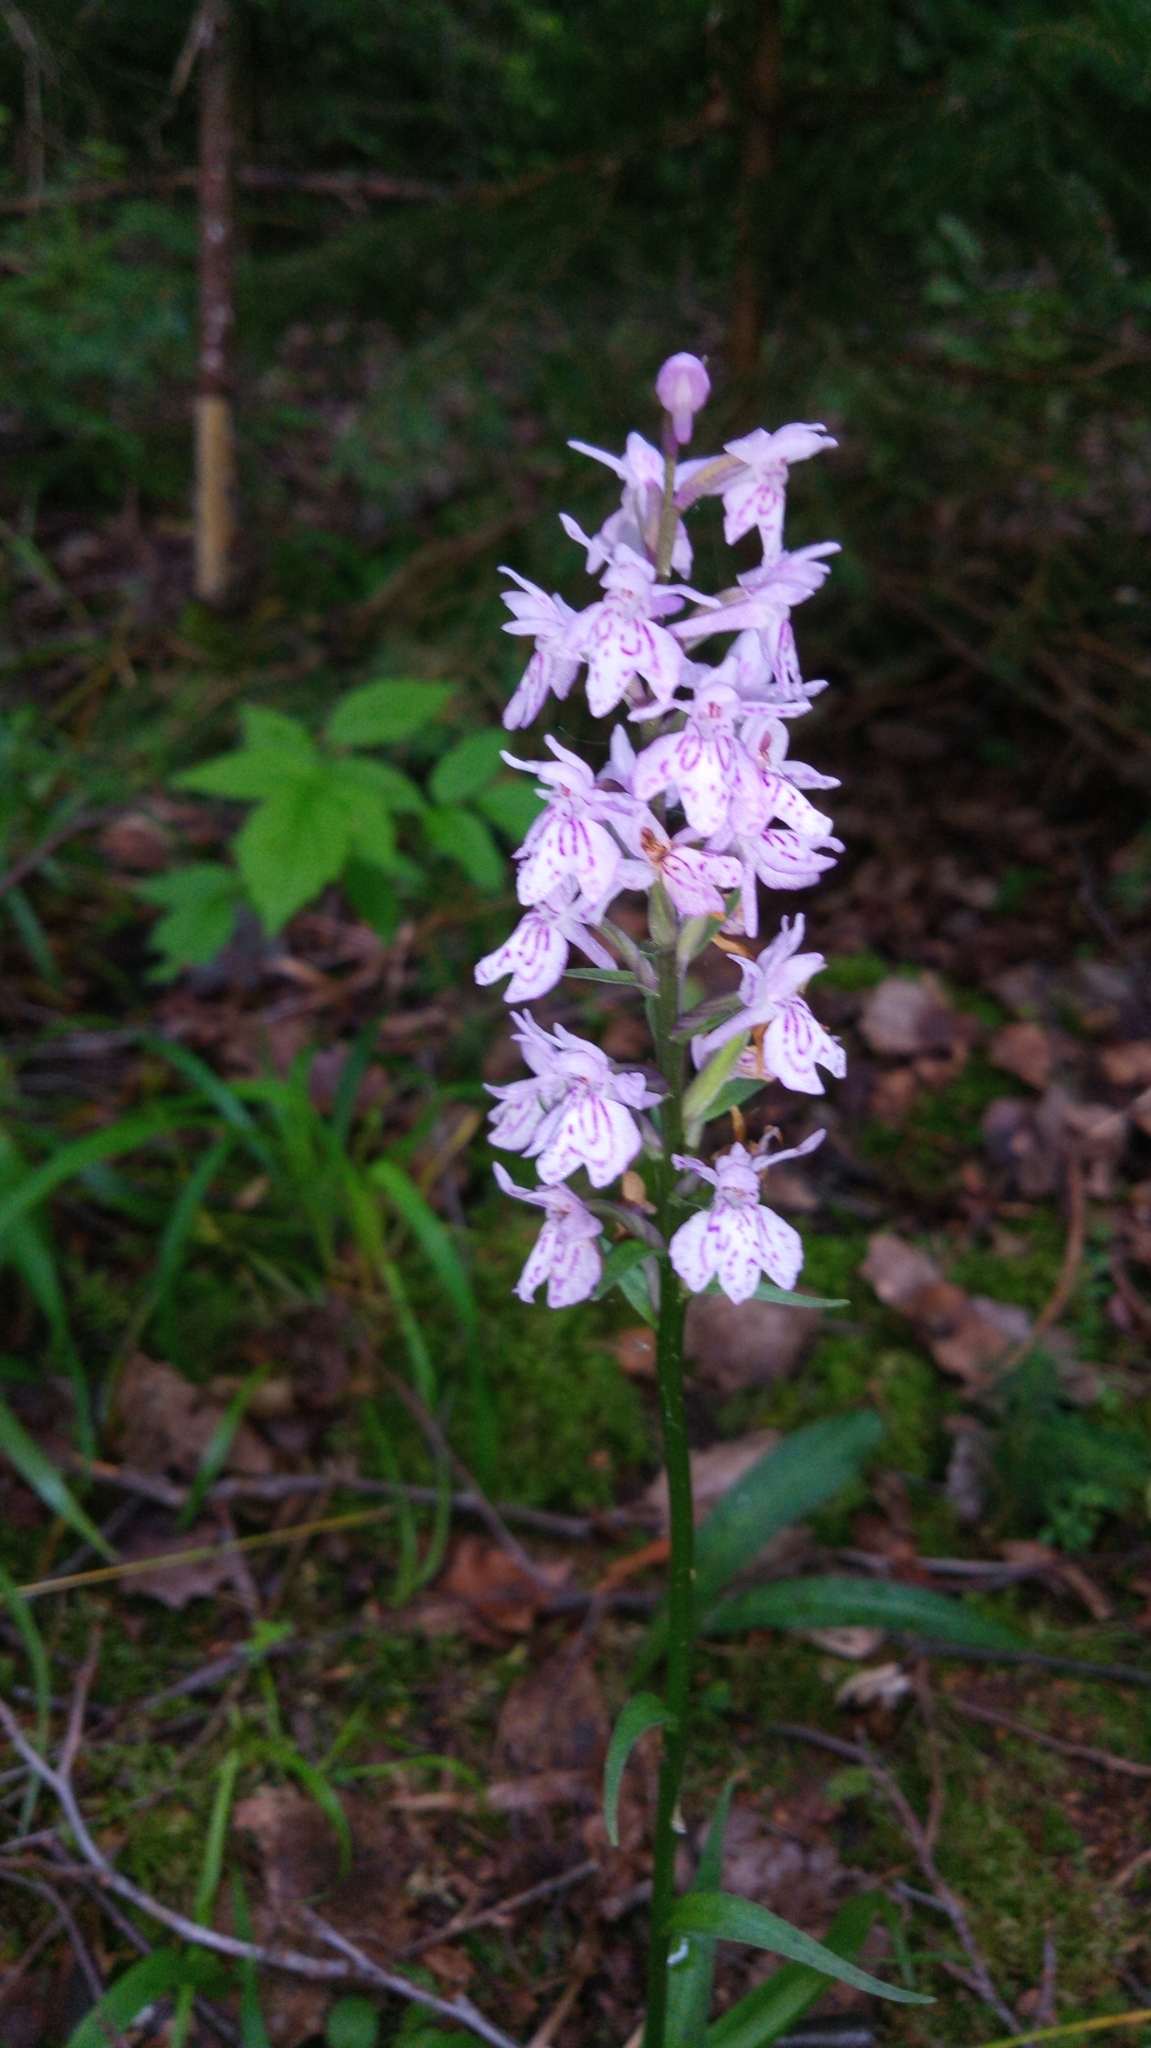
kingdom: Plantae
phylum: Tracheophyta
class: Liliopsida
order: Asparagales
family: Orchidaceae
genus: Dactylorhiza
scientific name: Dactylorhiza maculata
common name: Heath spotted-orchid
